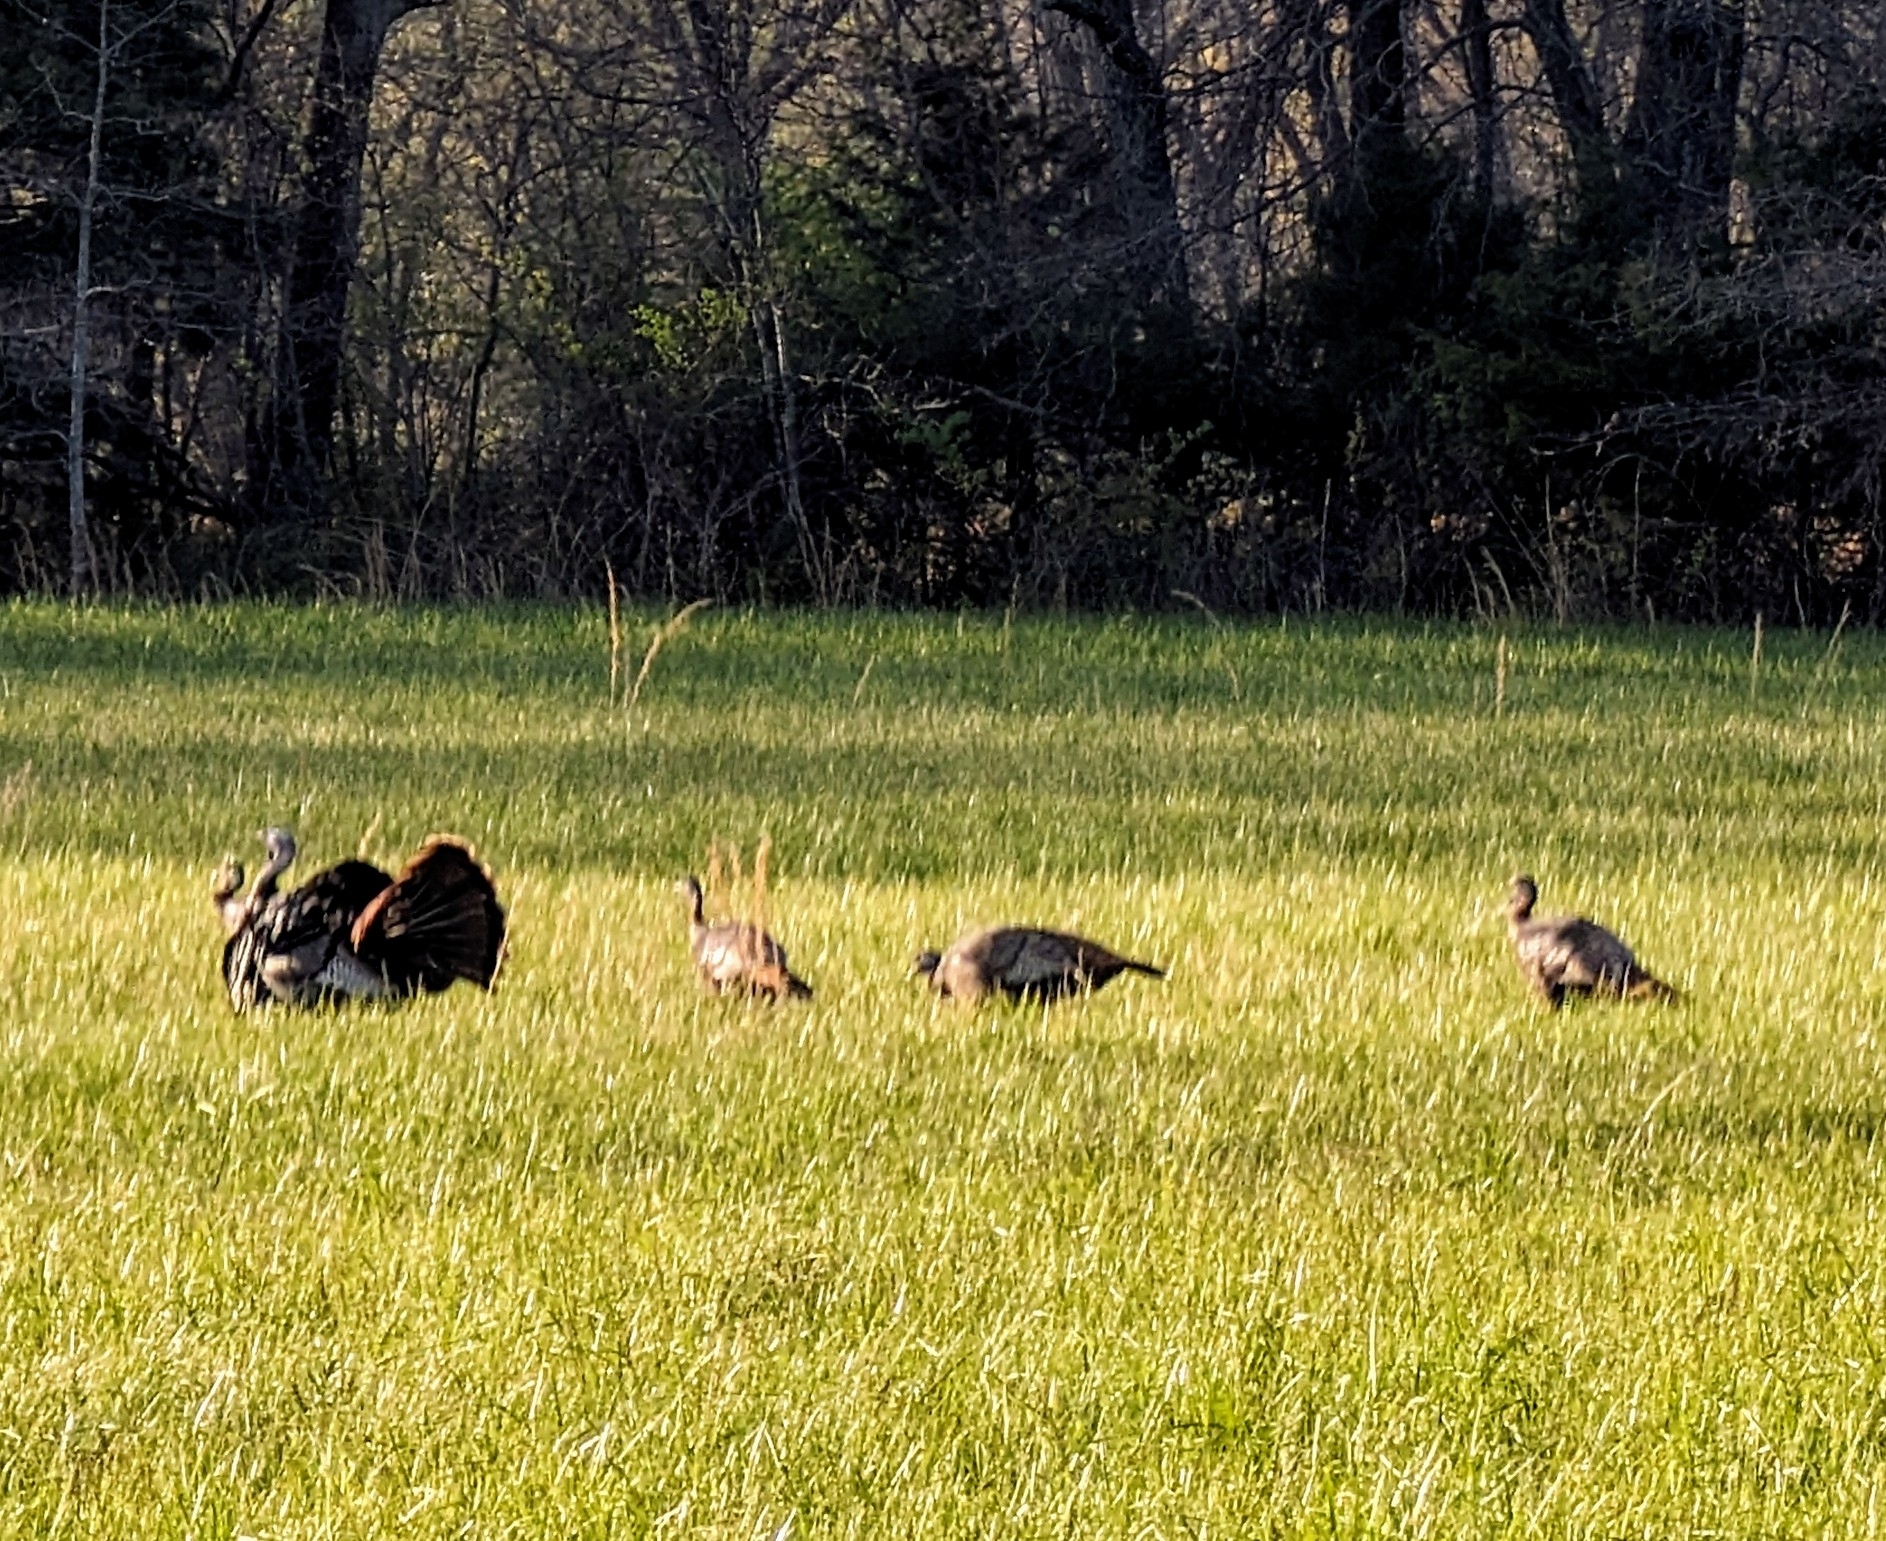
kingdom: Animalia
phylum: Chordata
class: Aves
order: Galliformes
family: Phasianidae
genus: Meleagris
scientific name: Meleagris gallopavo
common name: Wild turkey
